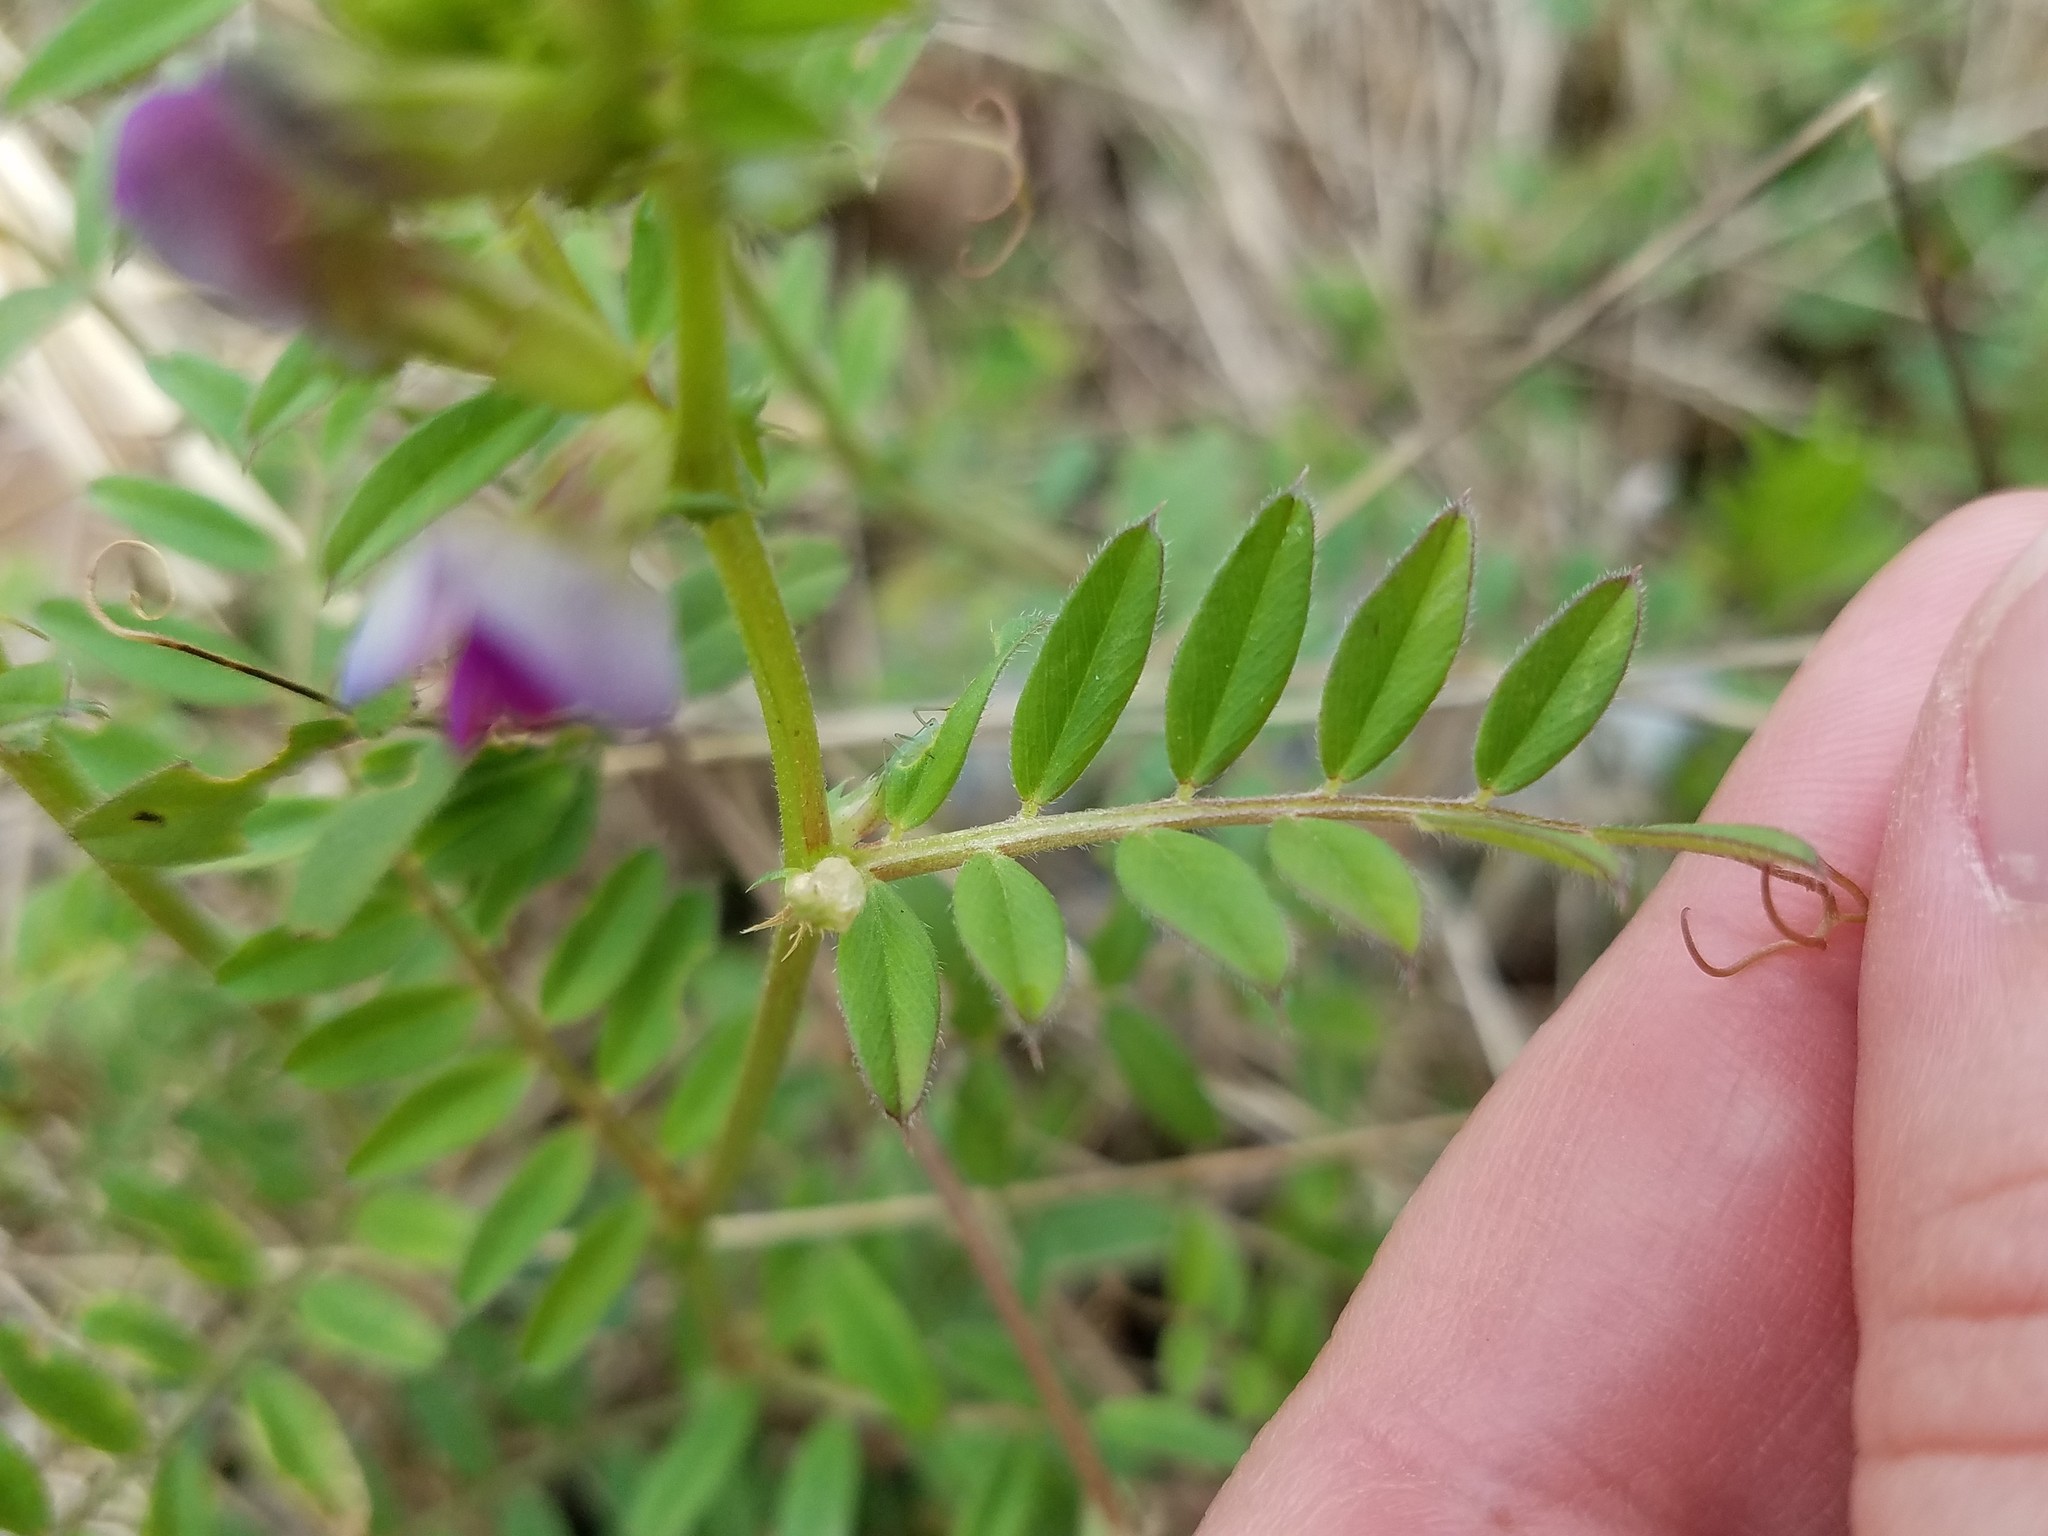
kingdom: Plantae
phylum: Tracheophyta
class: Magnoliopsida
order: Fabales
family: Fabaceae
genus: Vicia
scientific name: Vicia sativa
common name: Garden vetch
